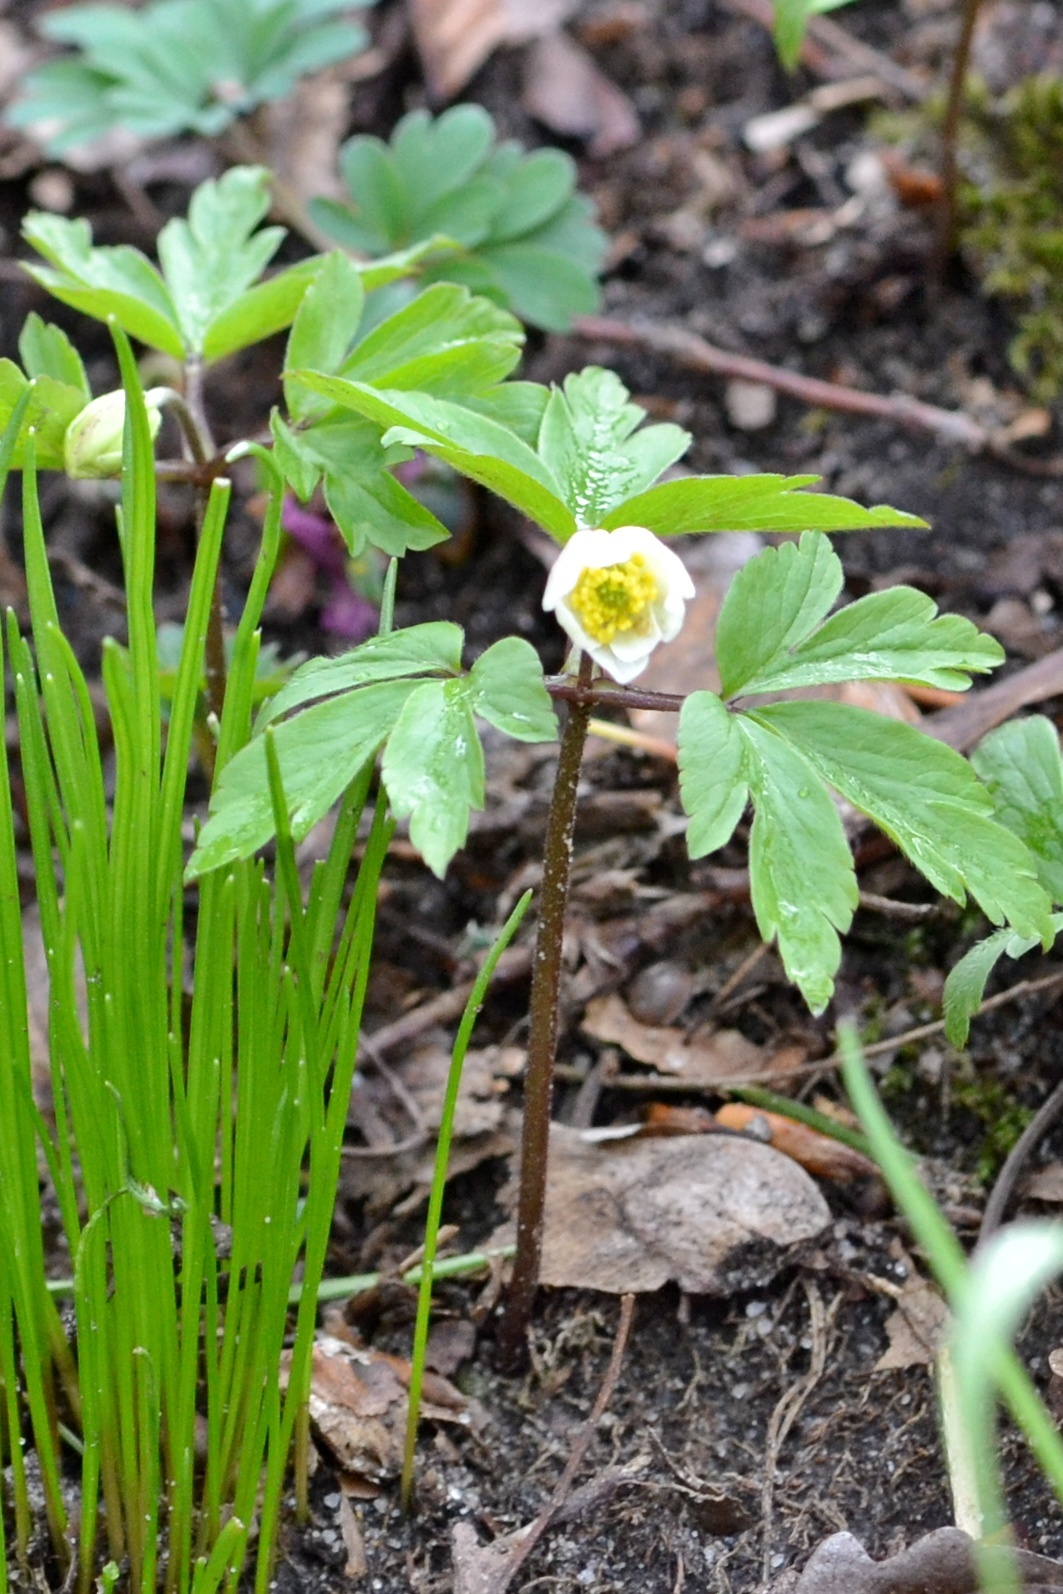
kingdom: Plantae
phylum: Tracheophyta
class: Magnoliopsida
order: Ranunculales
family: Ranunculaceae
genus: Anemone
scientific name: Anemone nemorosa
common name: Wood anemone
